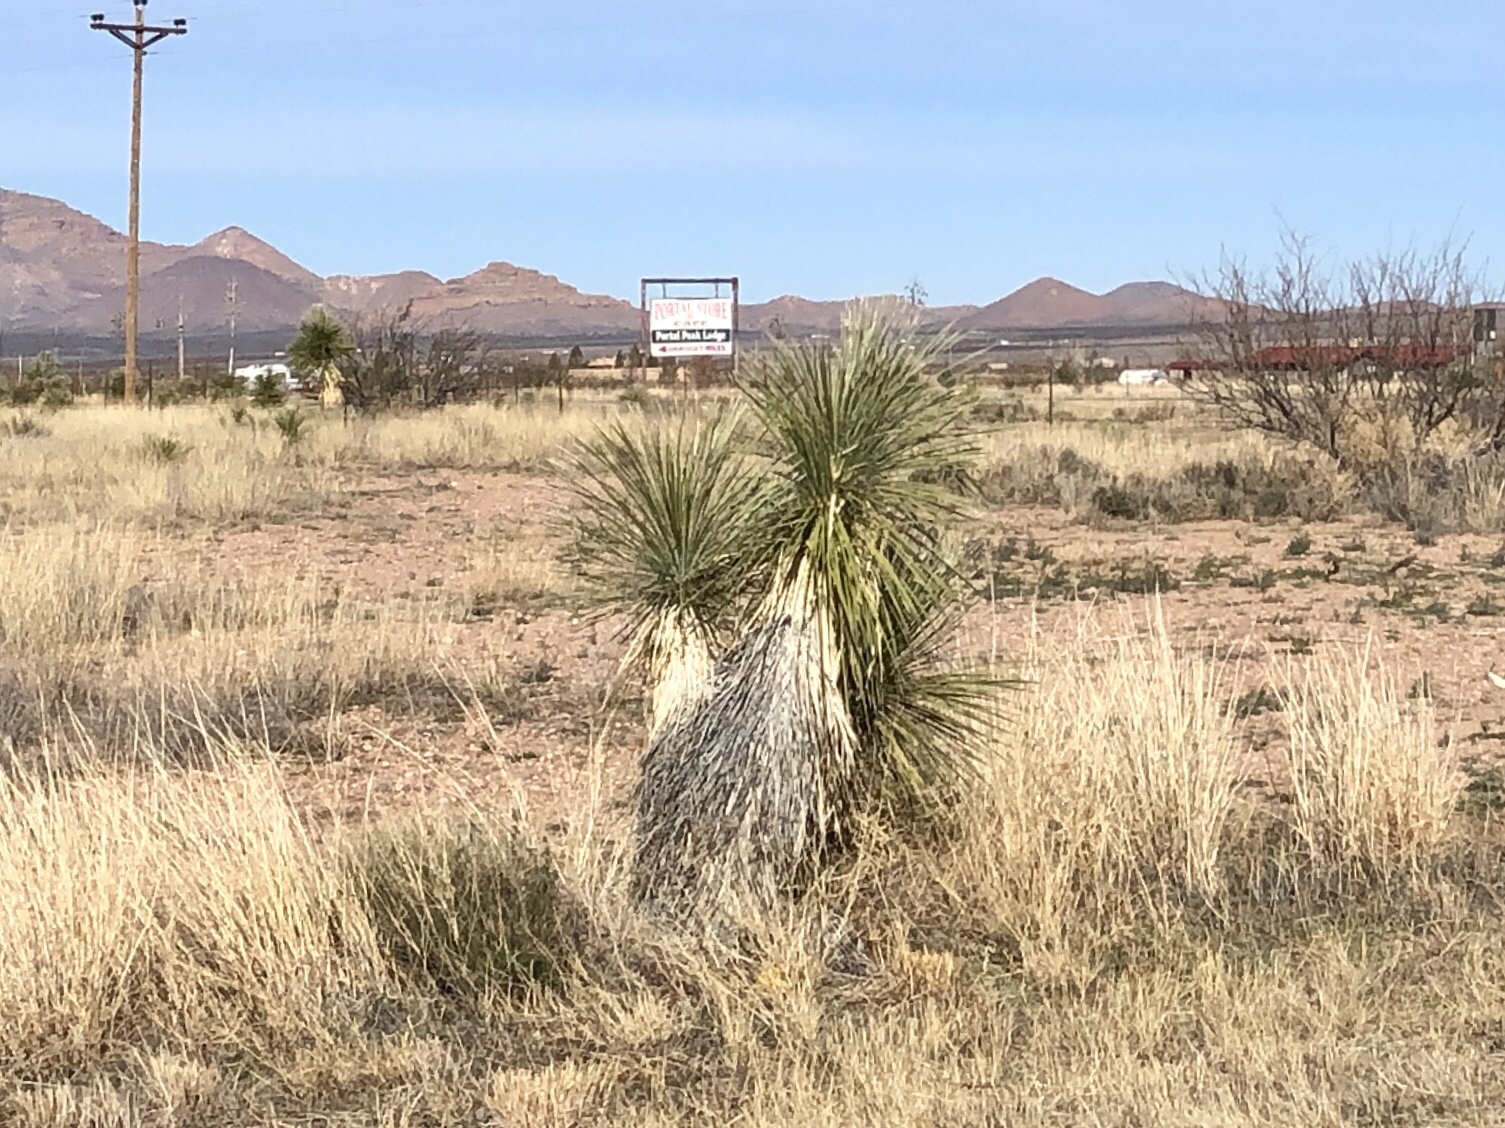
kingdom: Plantae
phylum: Tracheophyta
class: Liliopsida
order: Asparagales
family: Asparagaceae
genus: Yucca
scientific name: Yucca elata
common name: Palmella
